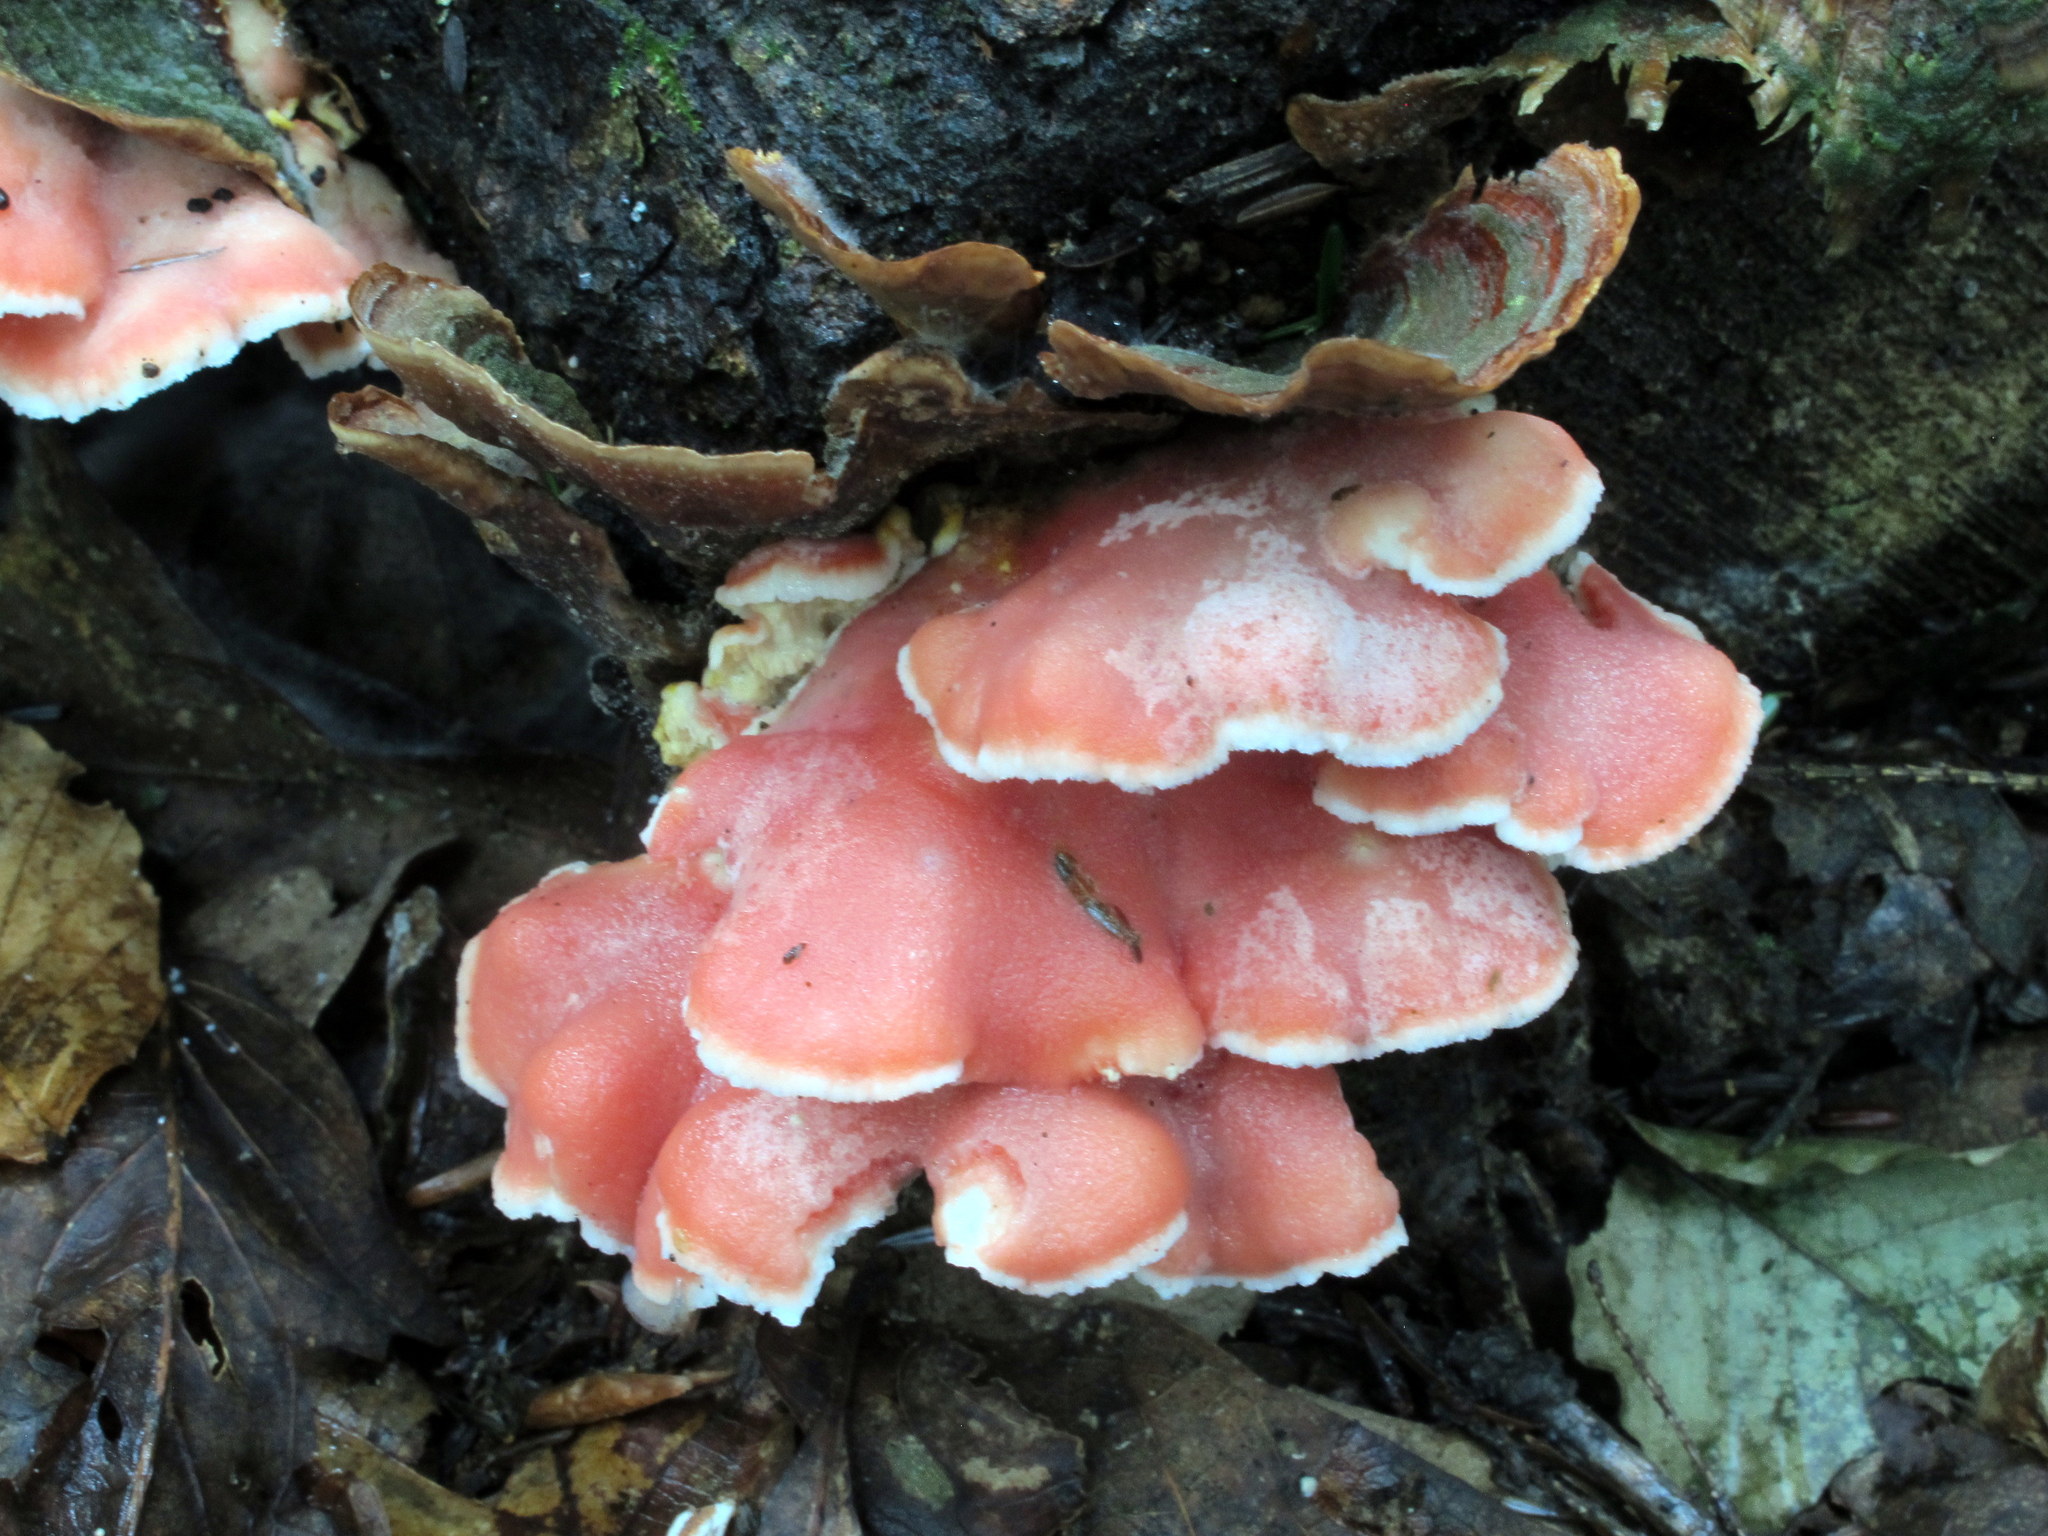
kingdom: Fungi
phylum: Basidiomycota
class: Agaricomycetes
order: Polyporales
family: Irpicaceae
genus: Byssomerulius
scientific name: Byssomerulius incarnatus
